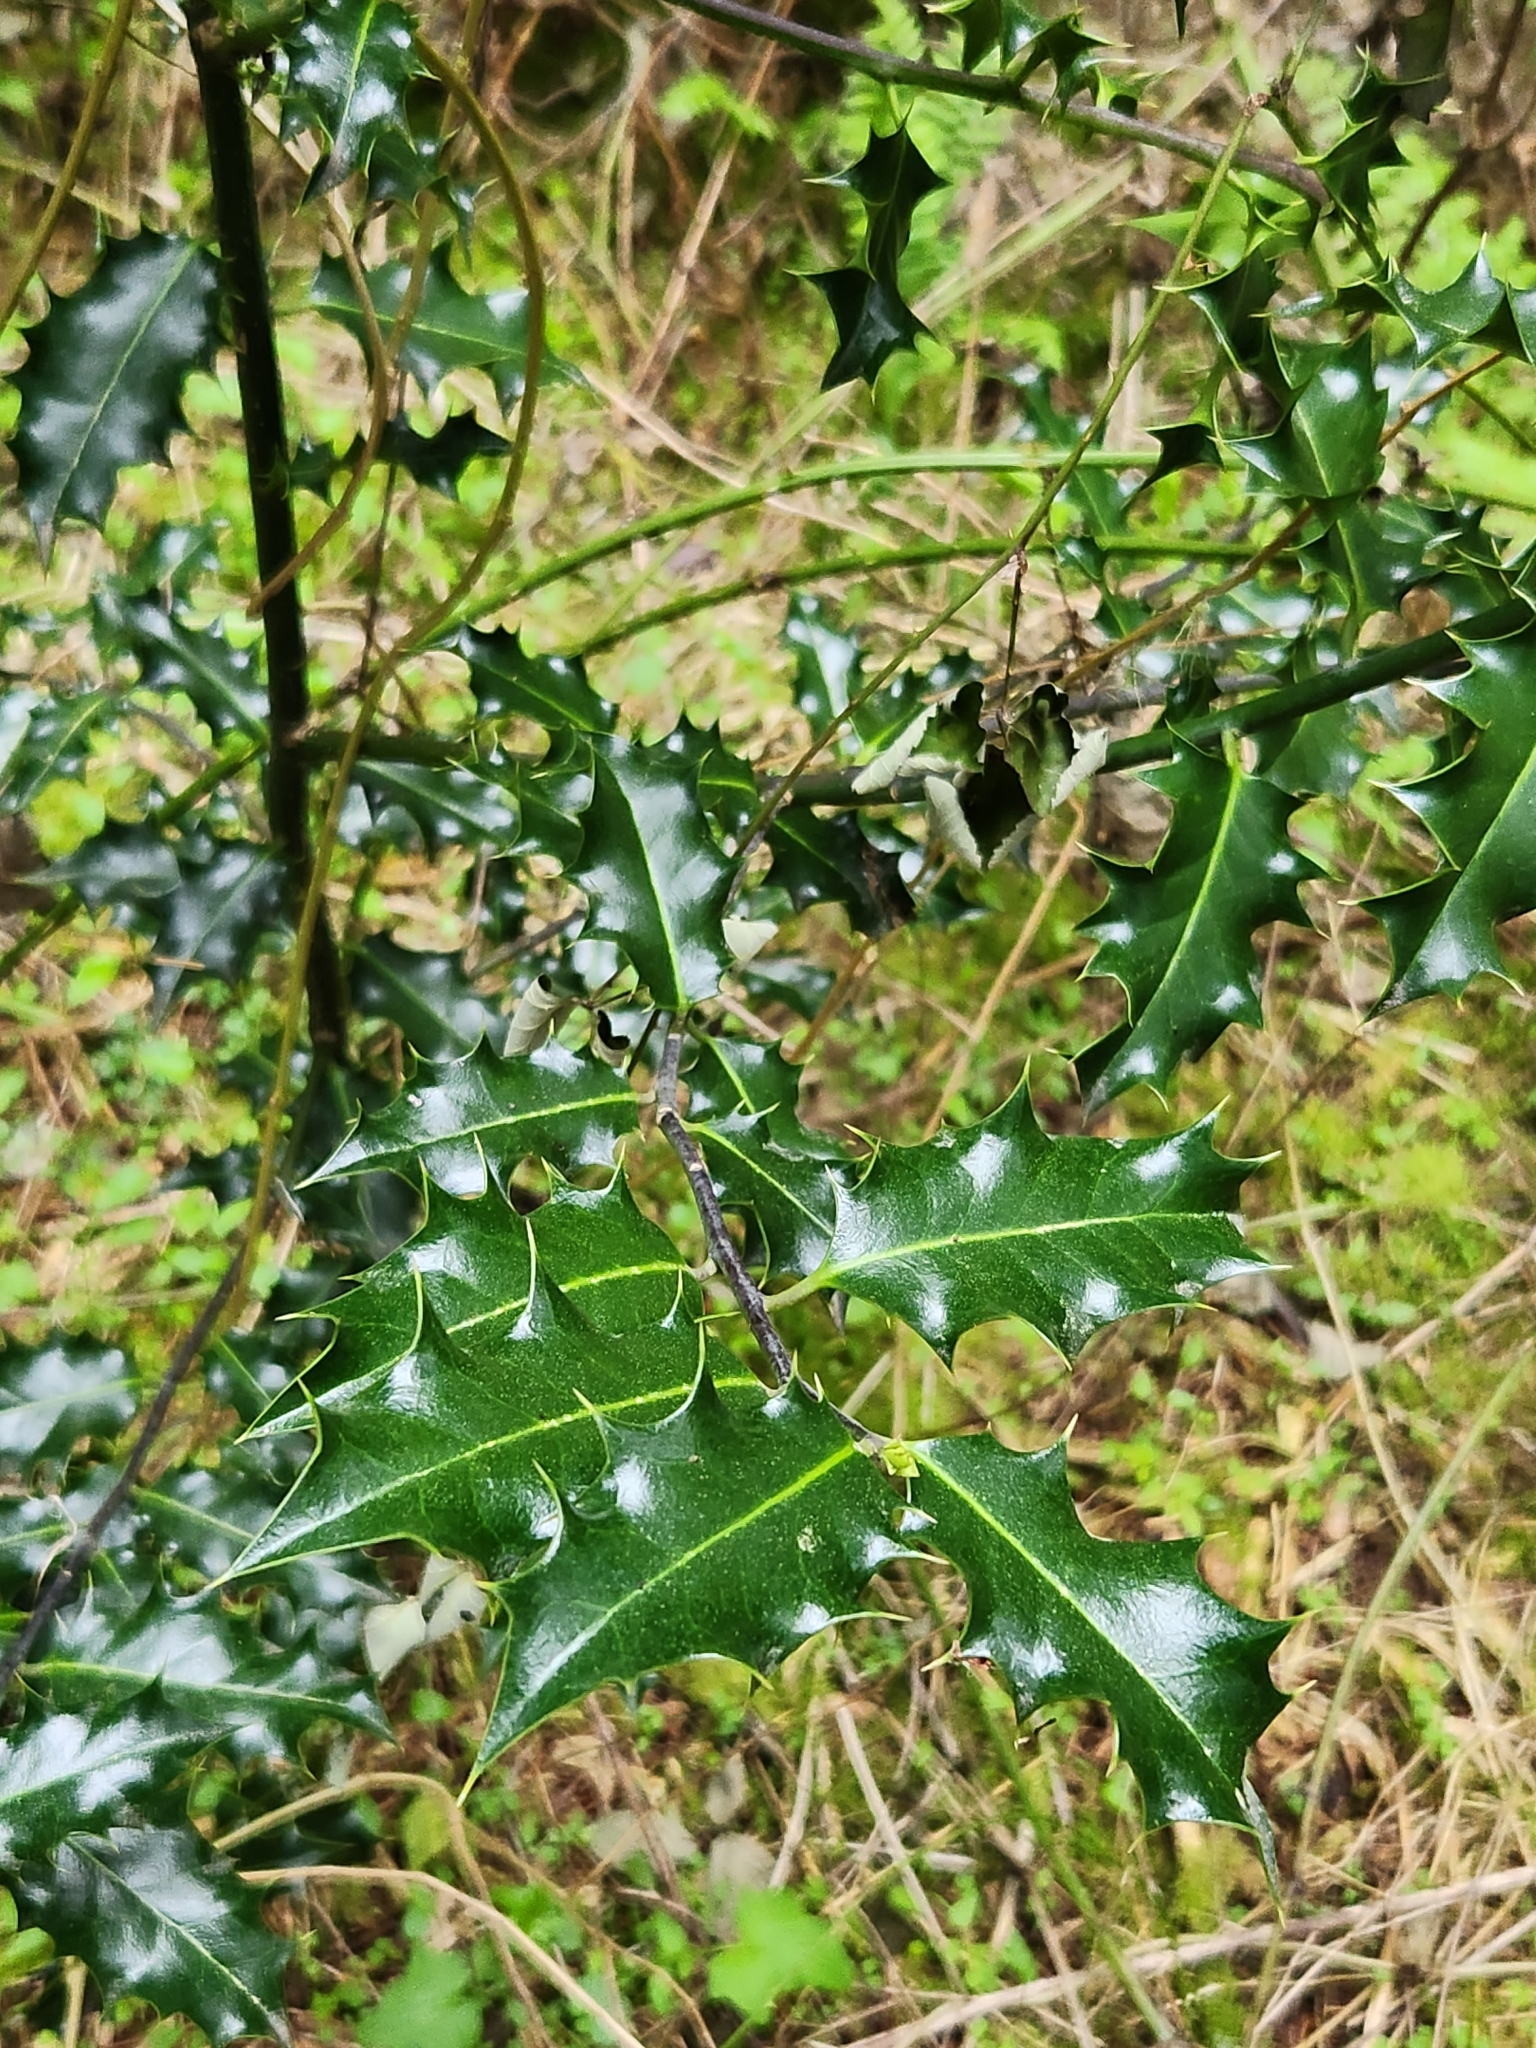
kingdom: Plantae
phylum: Tracheophyta
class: Magnoliopsida
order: Aquifoliales
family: Aquifoliaceae
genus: Ilex
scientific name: Ilex aquifolium
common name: English holly
